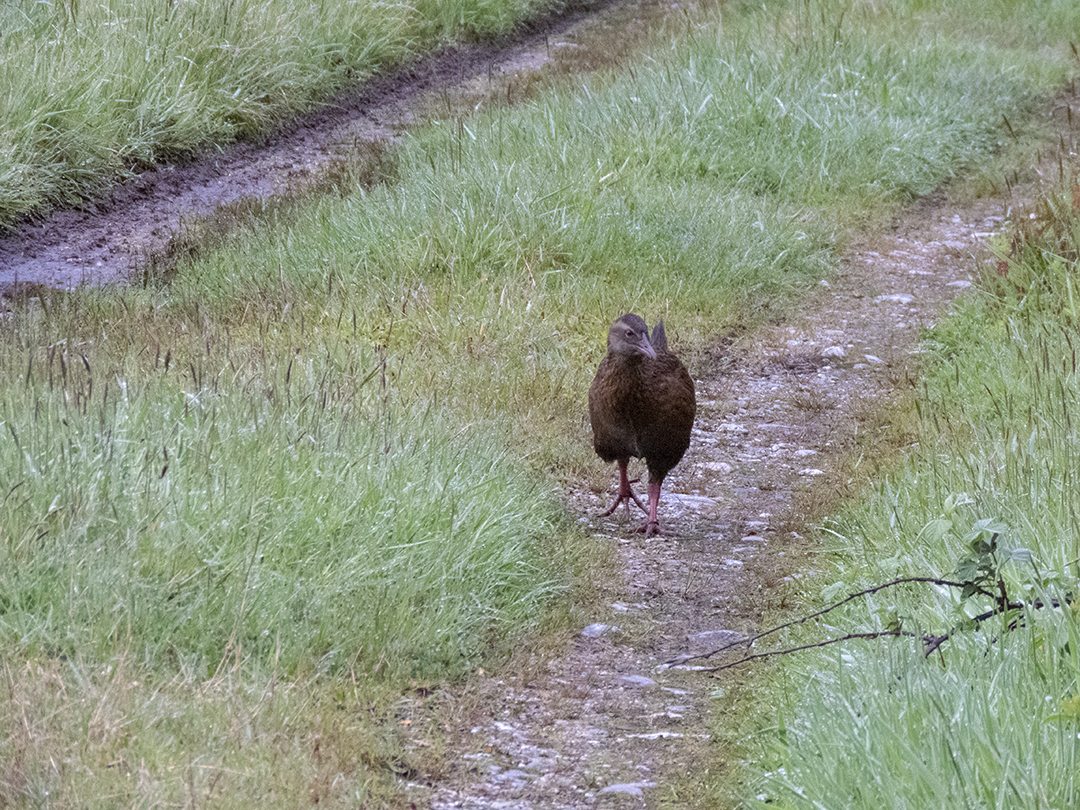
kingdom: Animalia
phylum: Chordata
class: Aves
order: Gruiformes
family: Rallidae
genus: Gallirallus
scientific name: Gallirallus australis
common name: Weka
